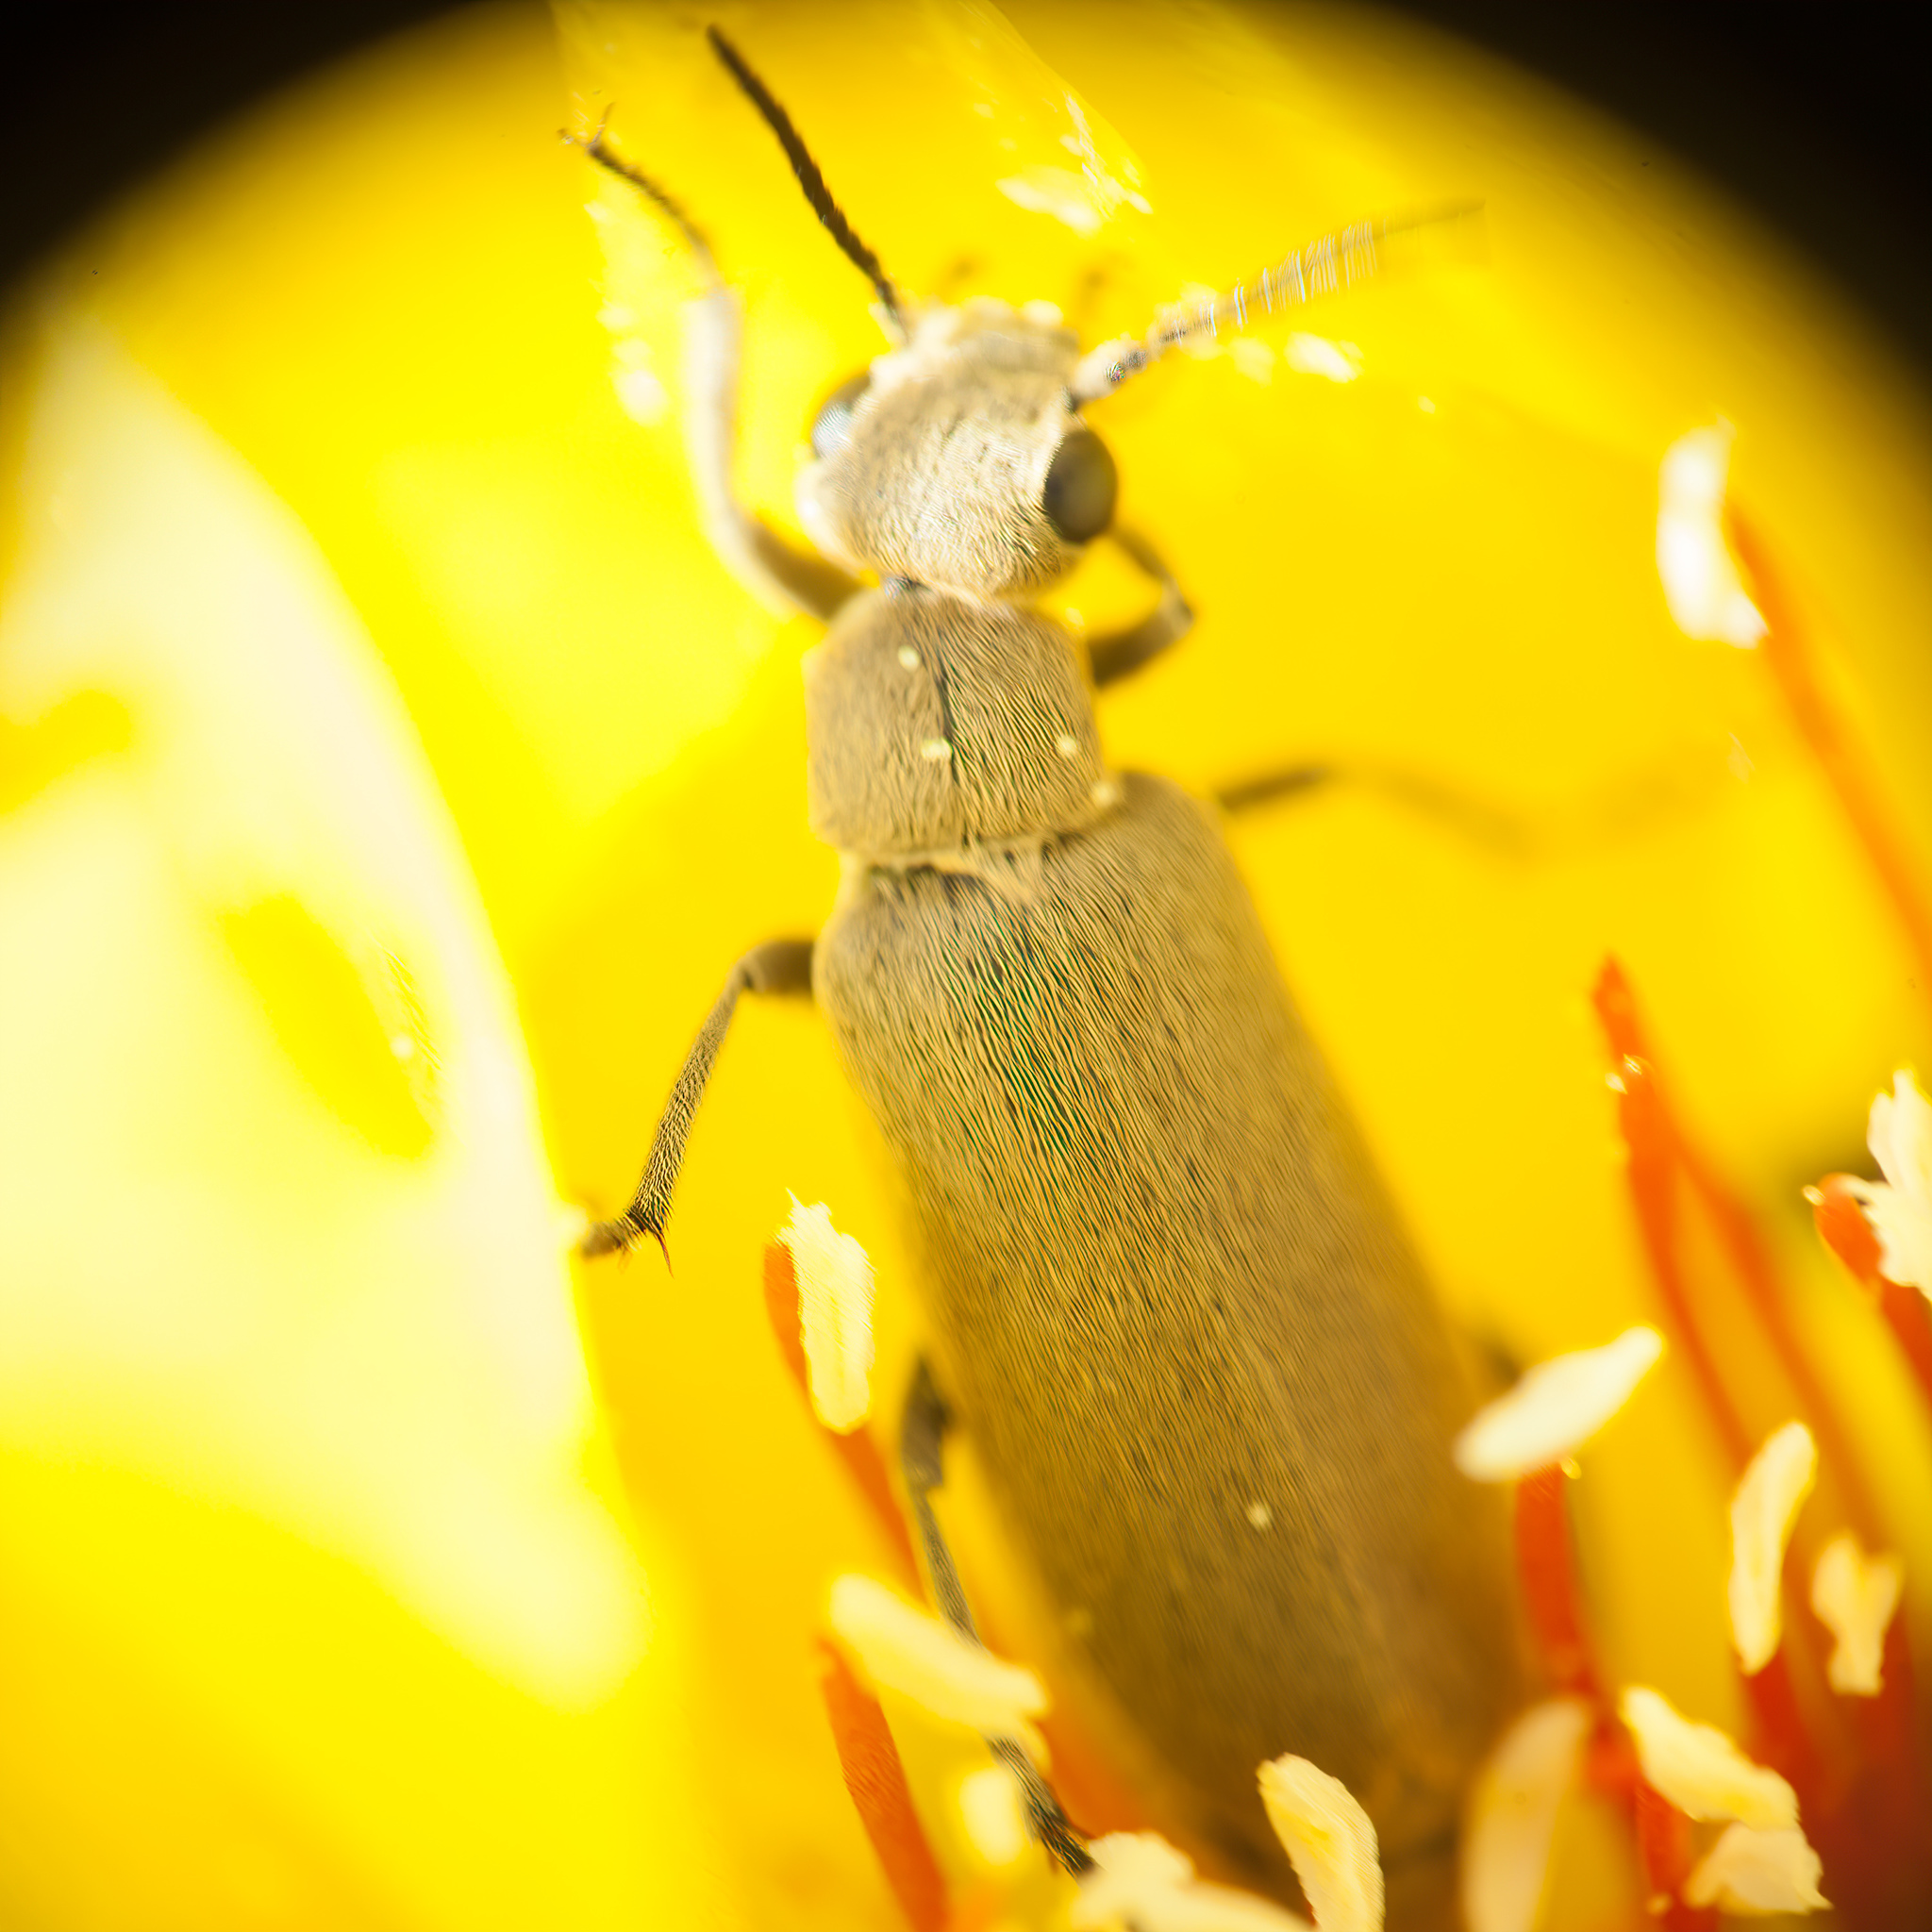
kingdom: Animalia
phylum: Arthropoda
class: Insecta
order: Coleoptera
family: Meloidae
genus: Epicauta
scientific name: Epicauta sericans
